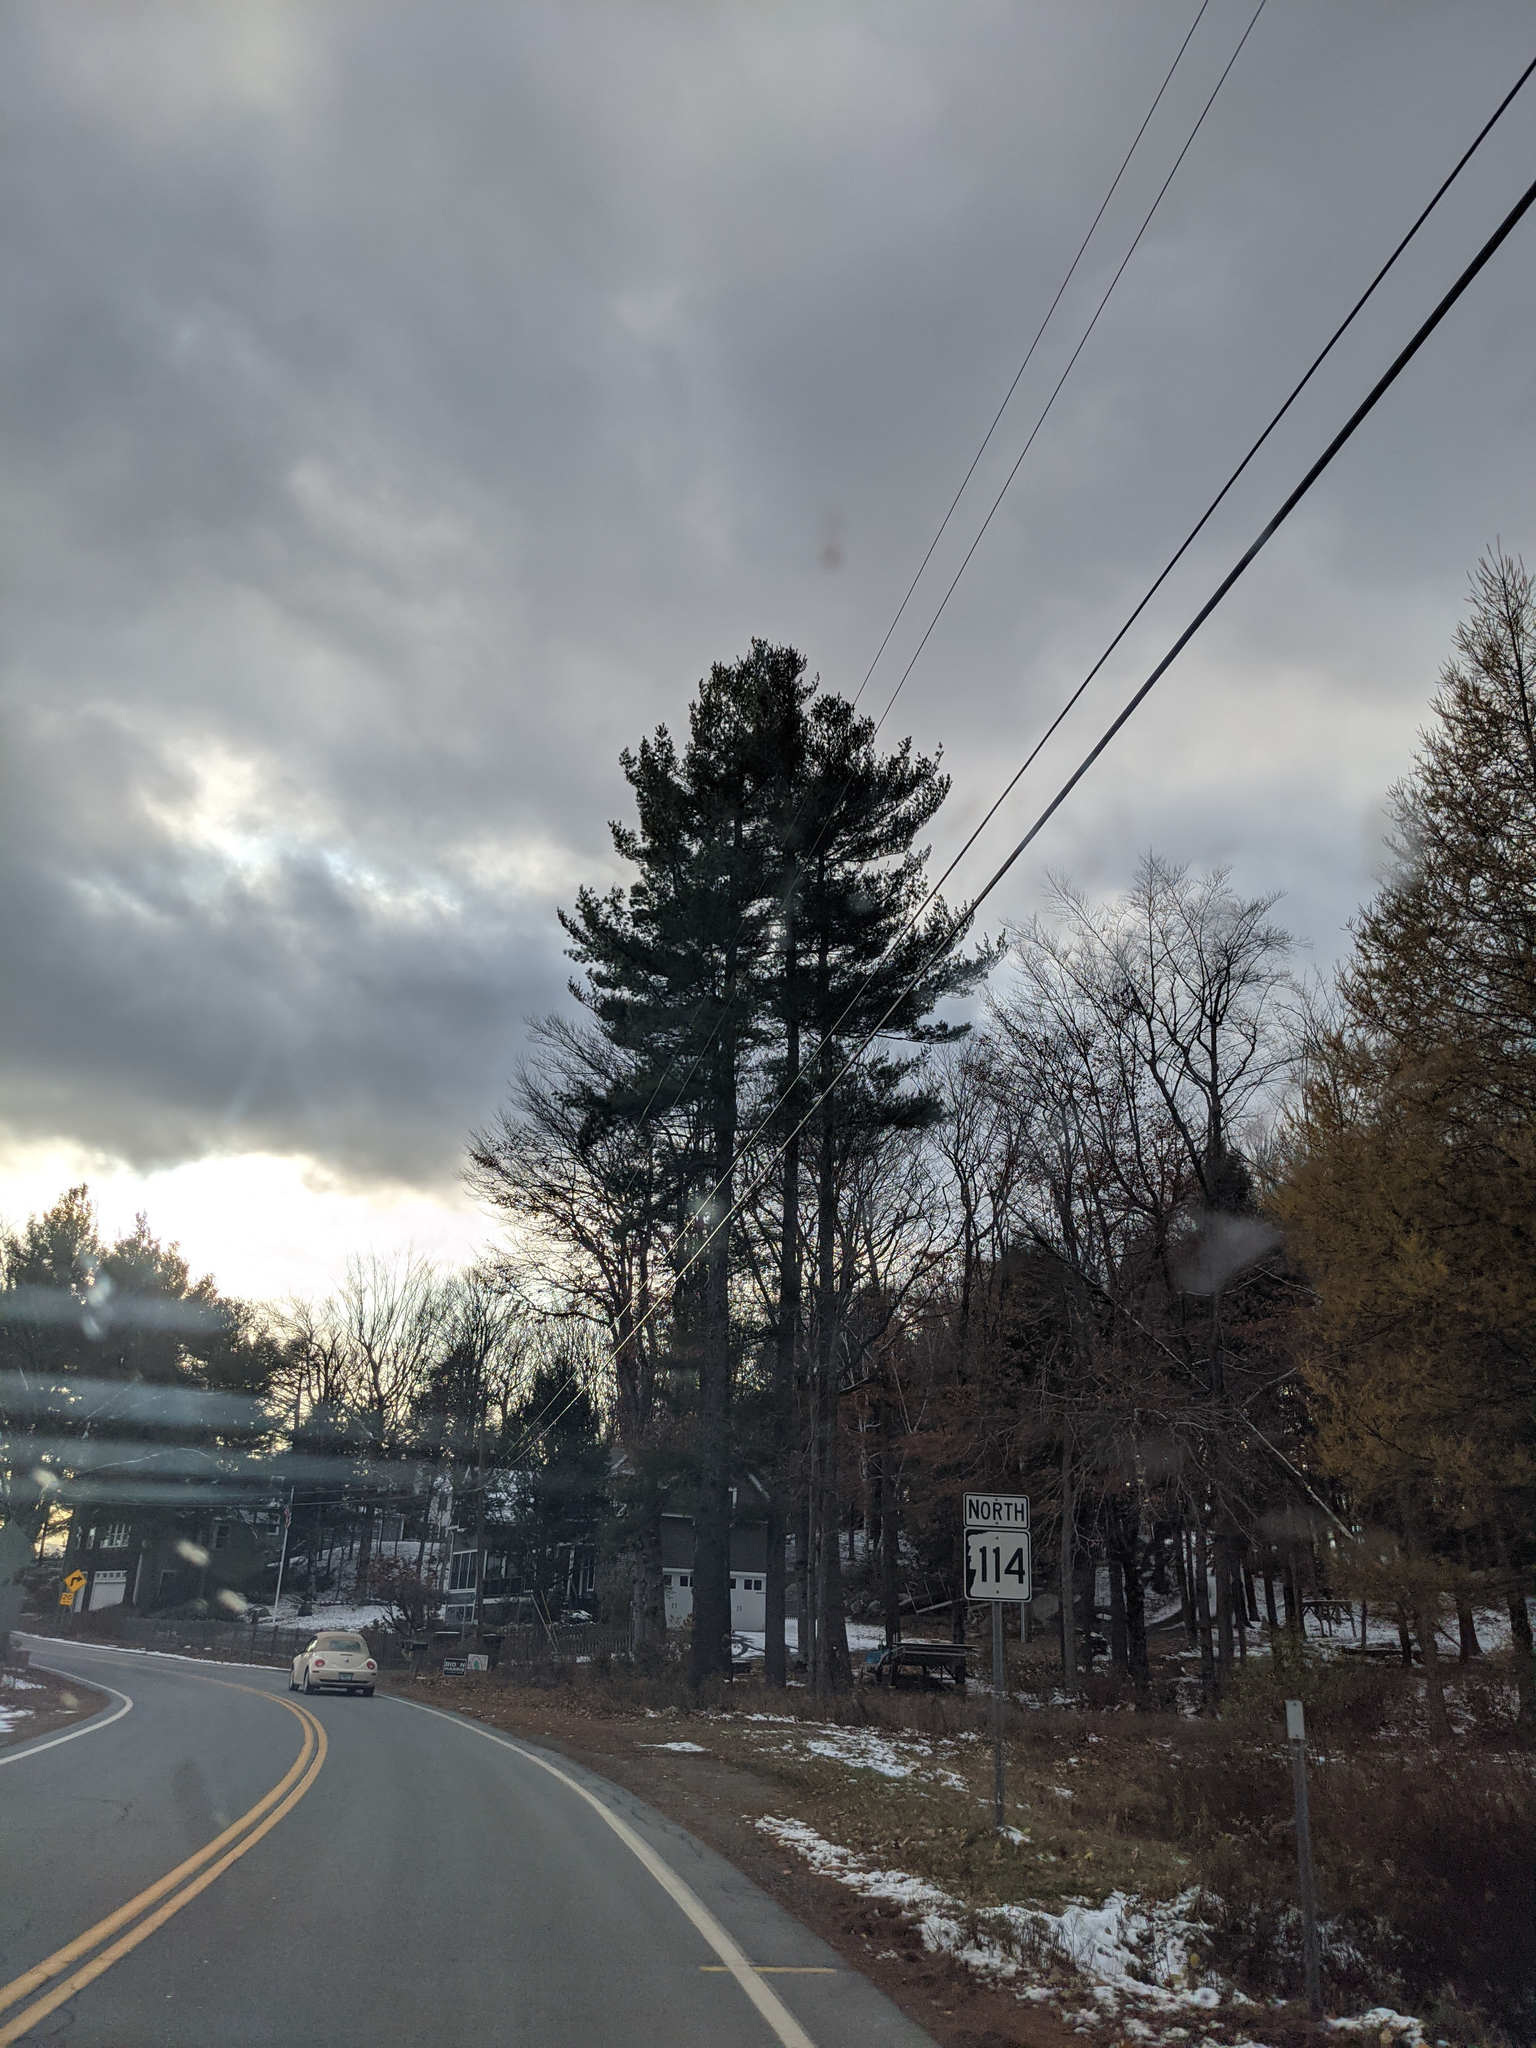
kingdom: Plantae
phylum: Tracheophyta
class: Pinopsida
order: Pinales
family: Pinaceae
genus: Pinus
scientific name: Pinus strobus
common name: Weymouth pine
